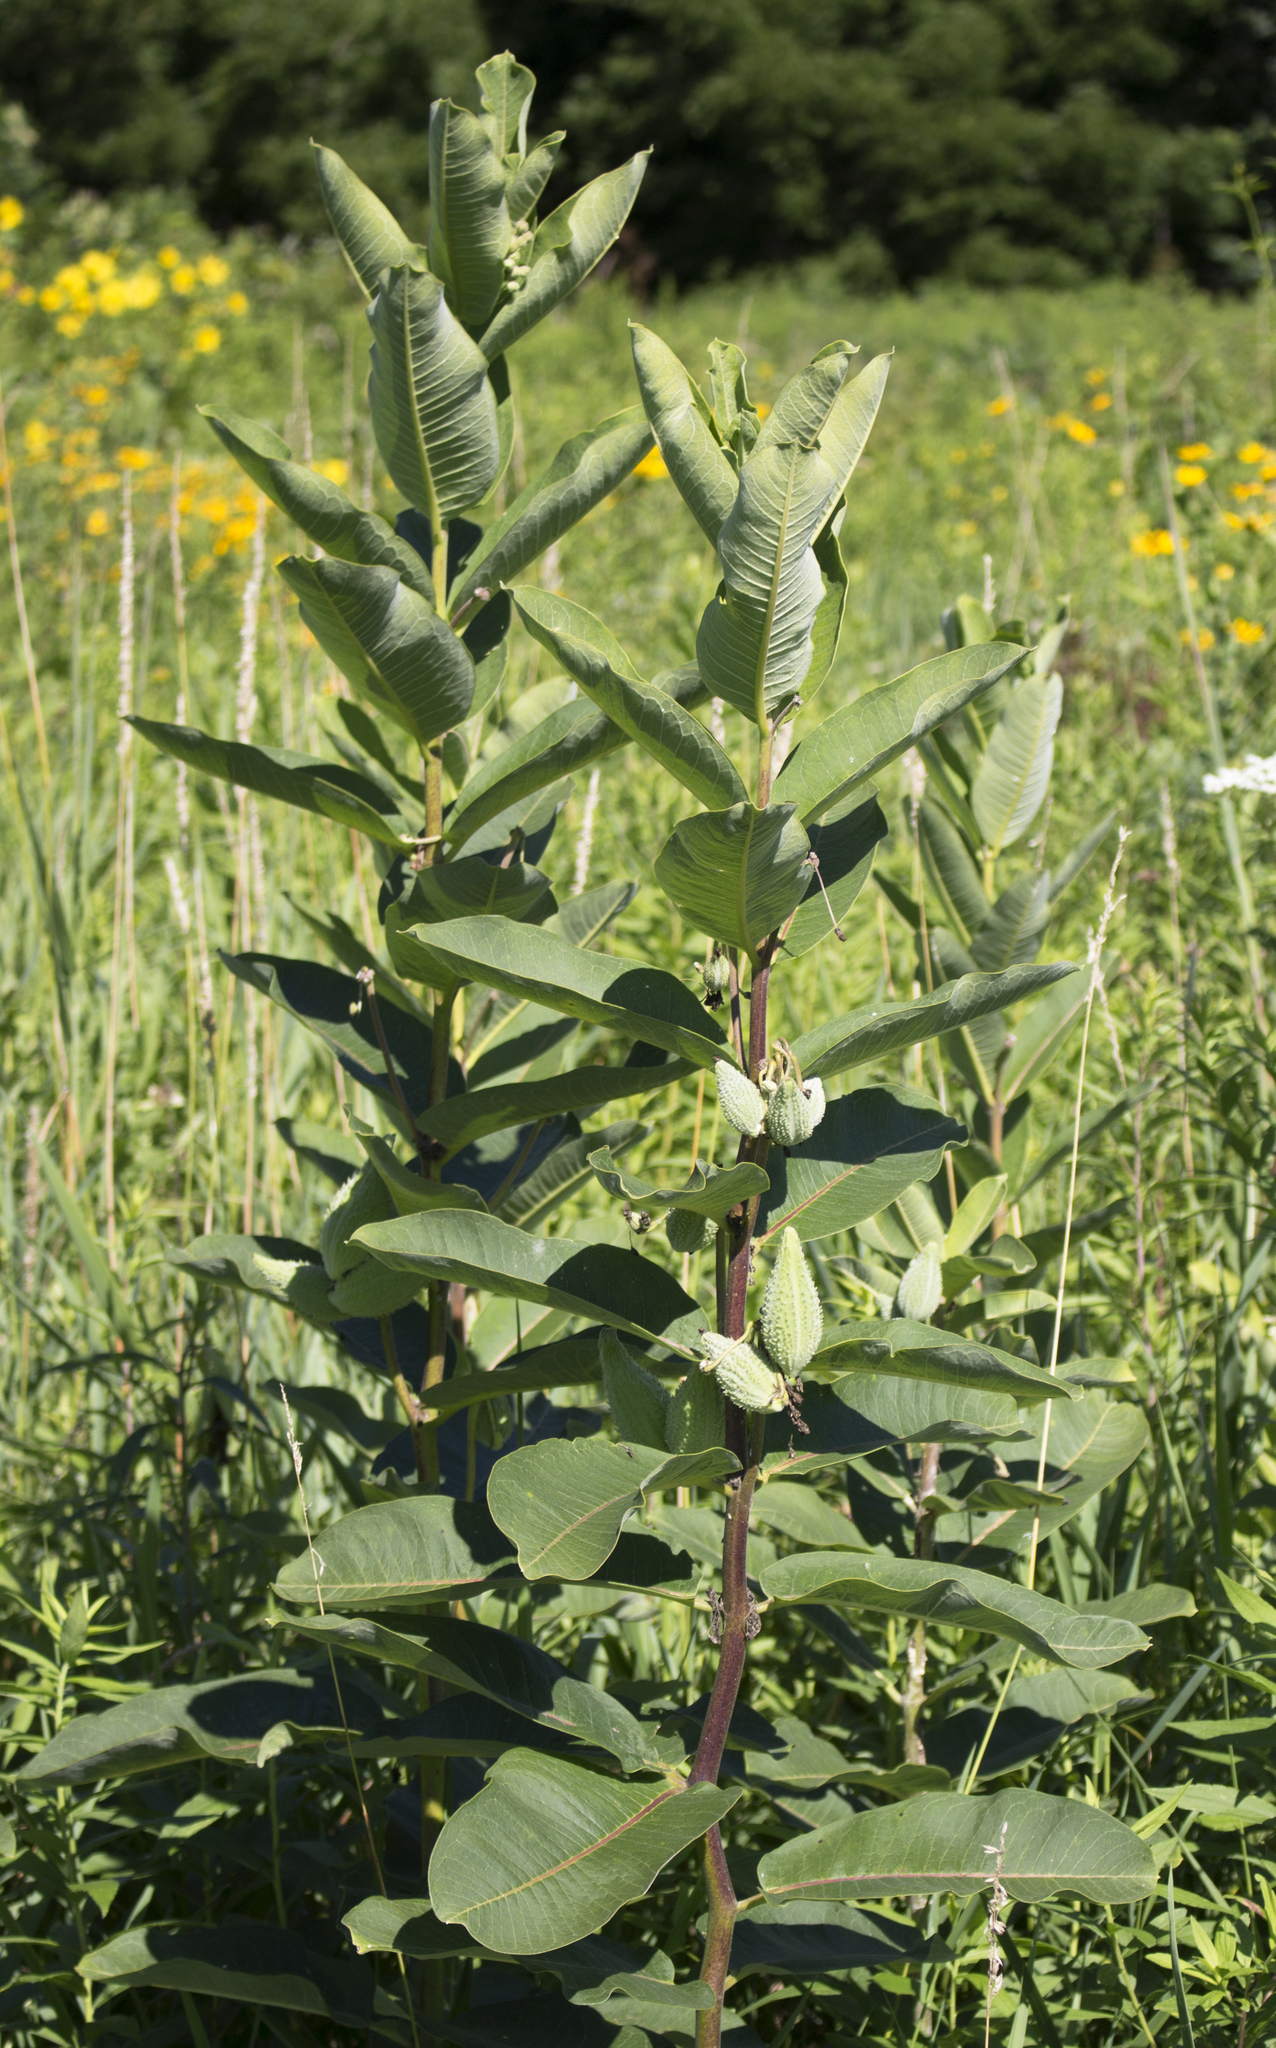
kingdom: Plantae
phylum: Tracheophyta
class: Magnoliopsida
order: Gentianales
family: Apocynaceae
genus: Asclepias
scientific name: Asclepias syriaca
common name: Common milkweed
